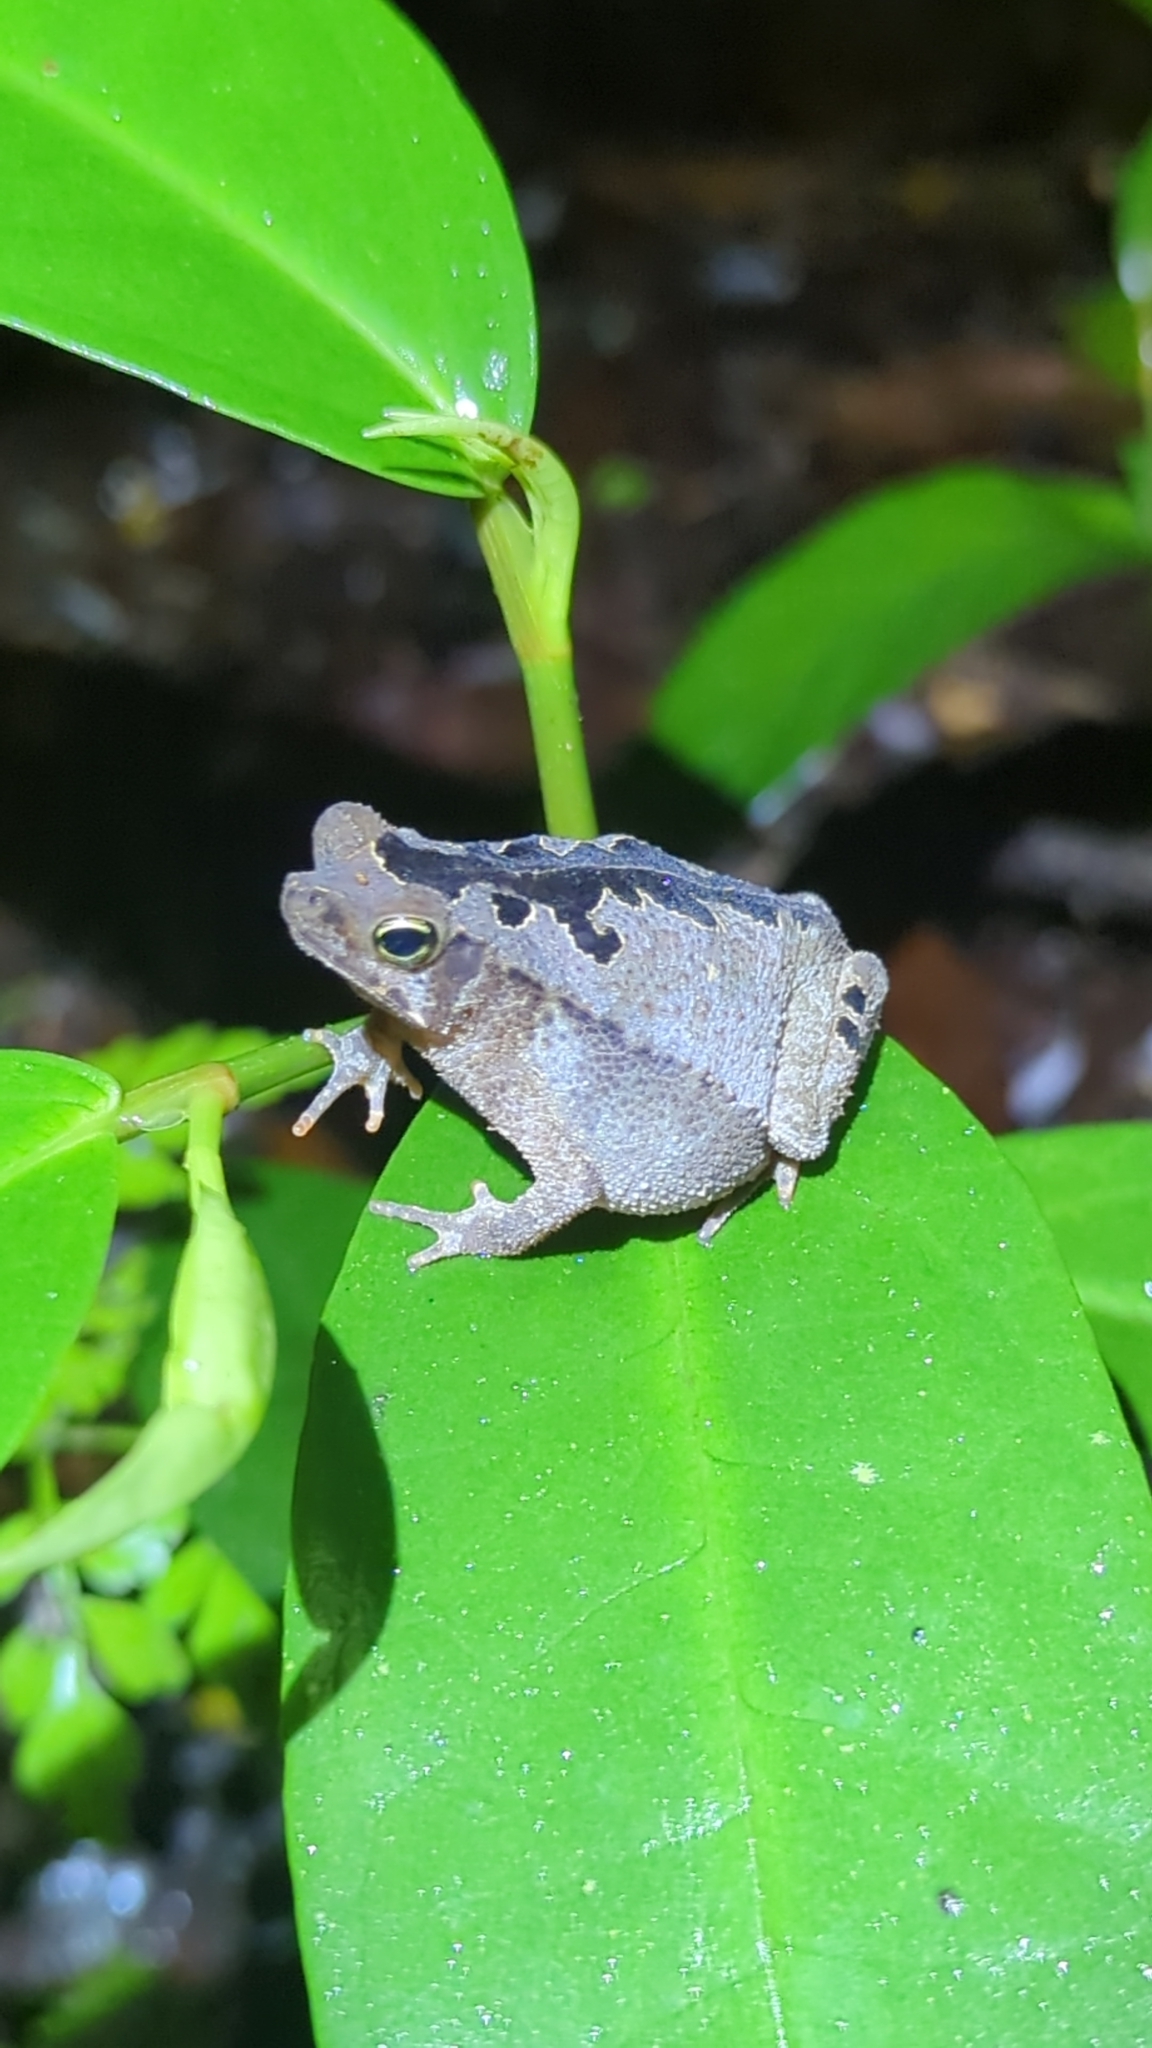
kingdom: Animalia
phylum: Chordata
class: Amphibia
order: Anura
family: Bufonidae
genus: Rhinella
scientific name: Rhinella alata
